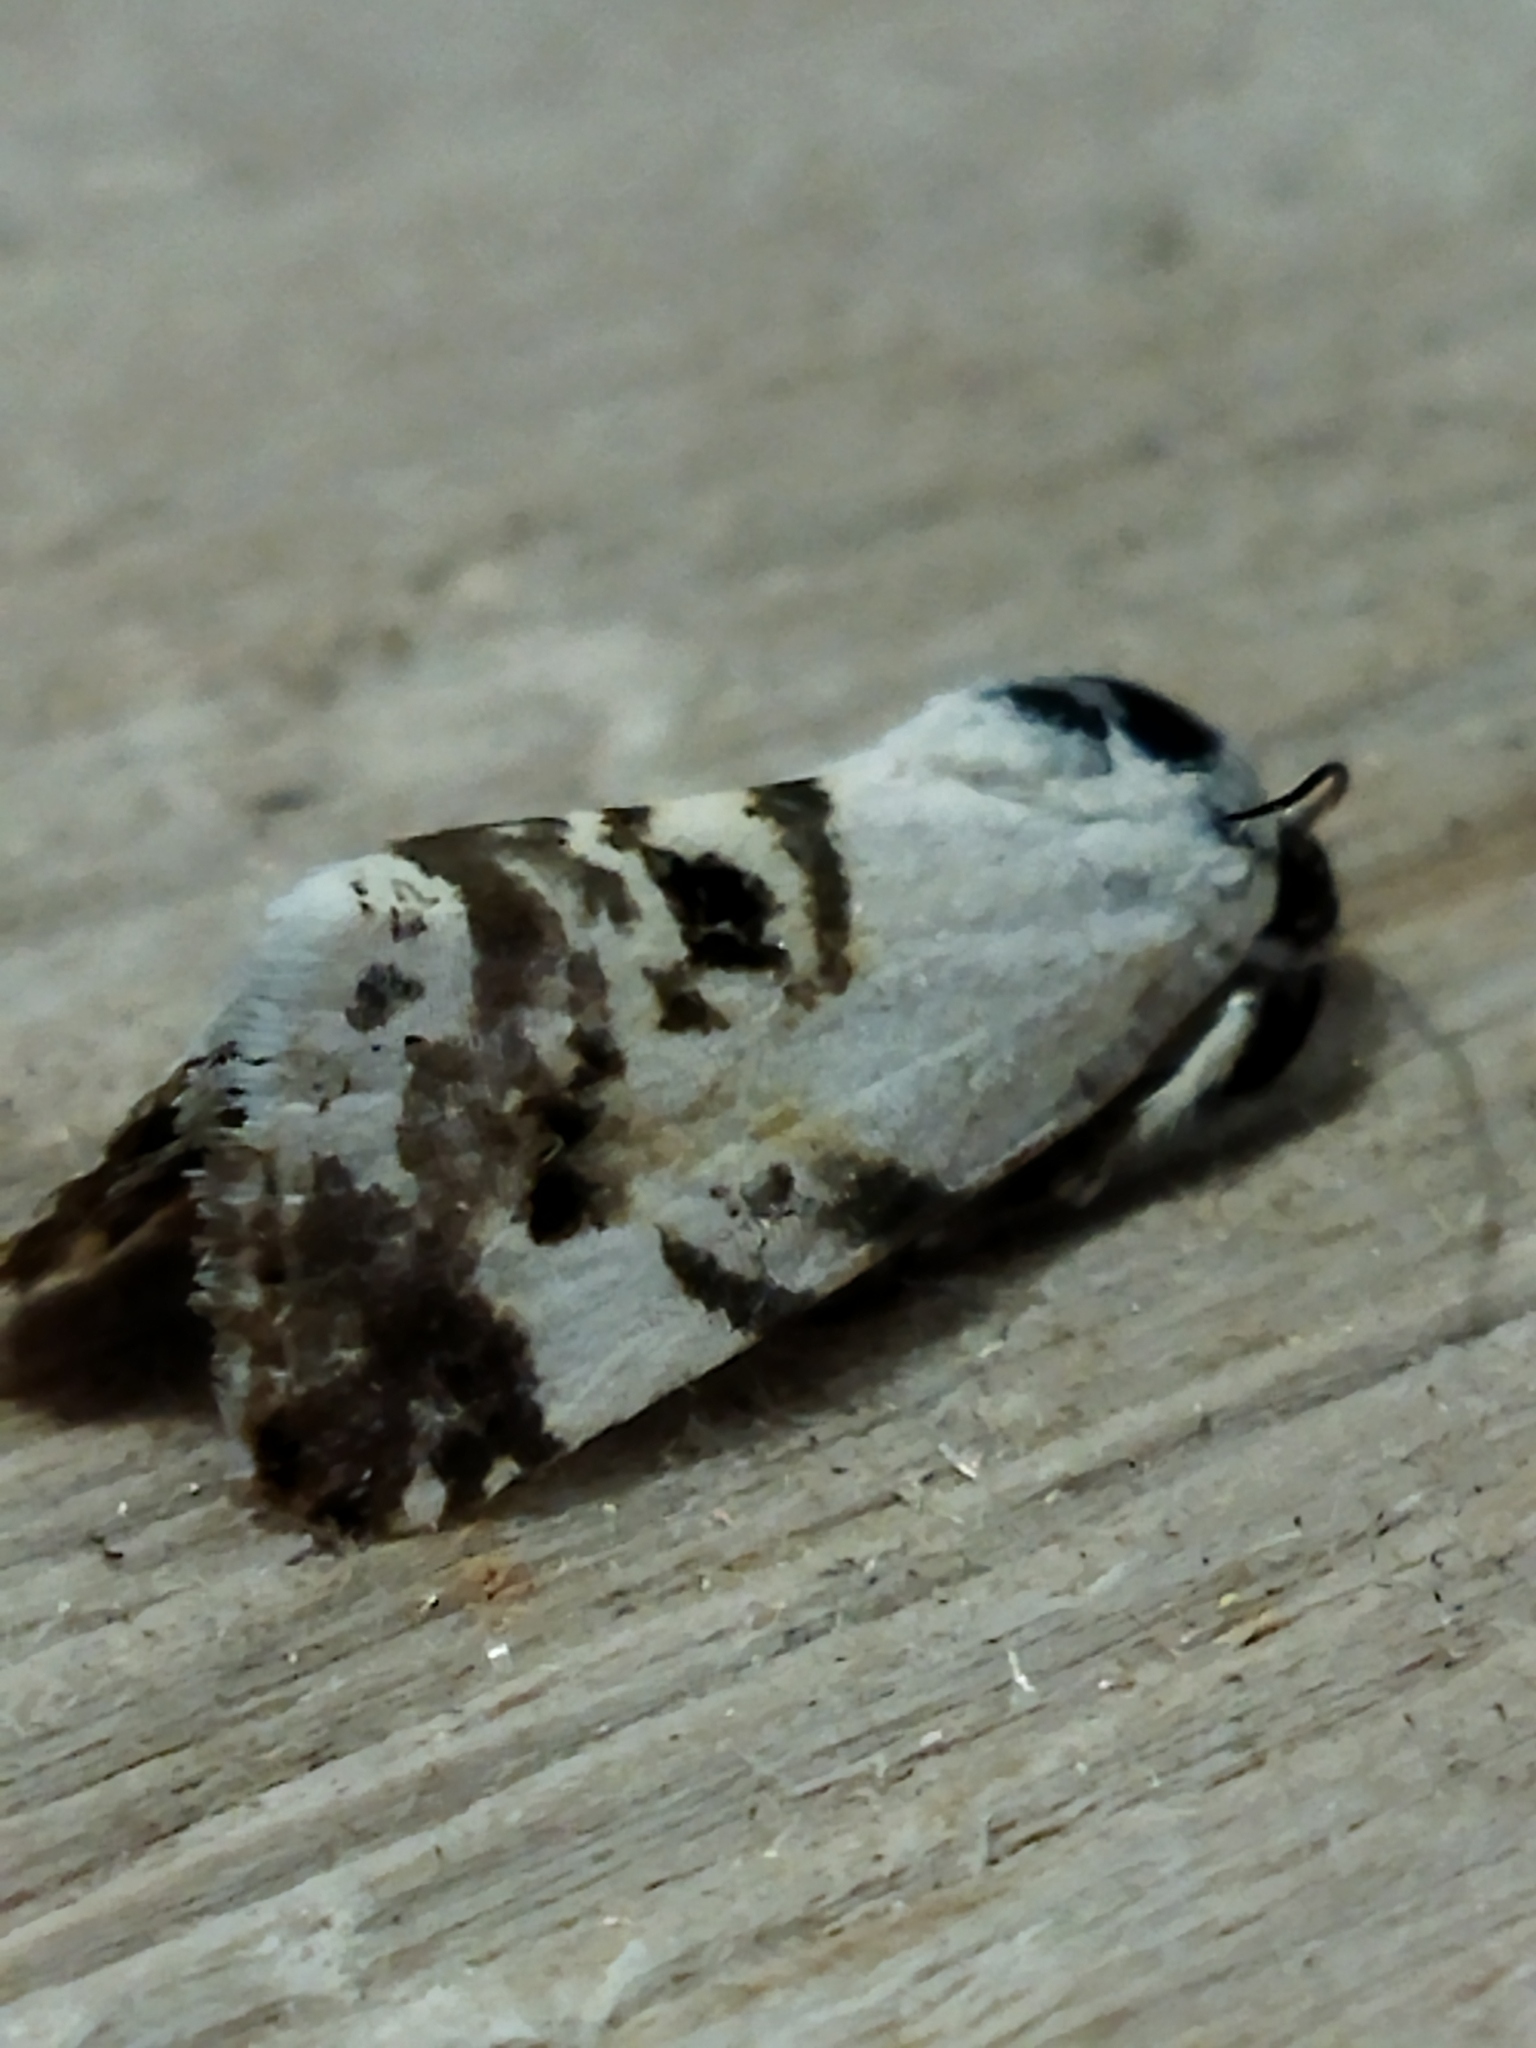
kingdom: Animalia
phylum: Arthropoda
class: Insecta
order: Lepidoptera
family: Noctuidae
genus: Acontia
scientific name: Acontia lucida
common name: Pale shoulder
